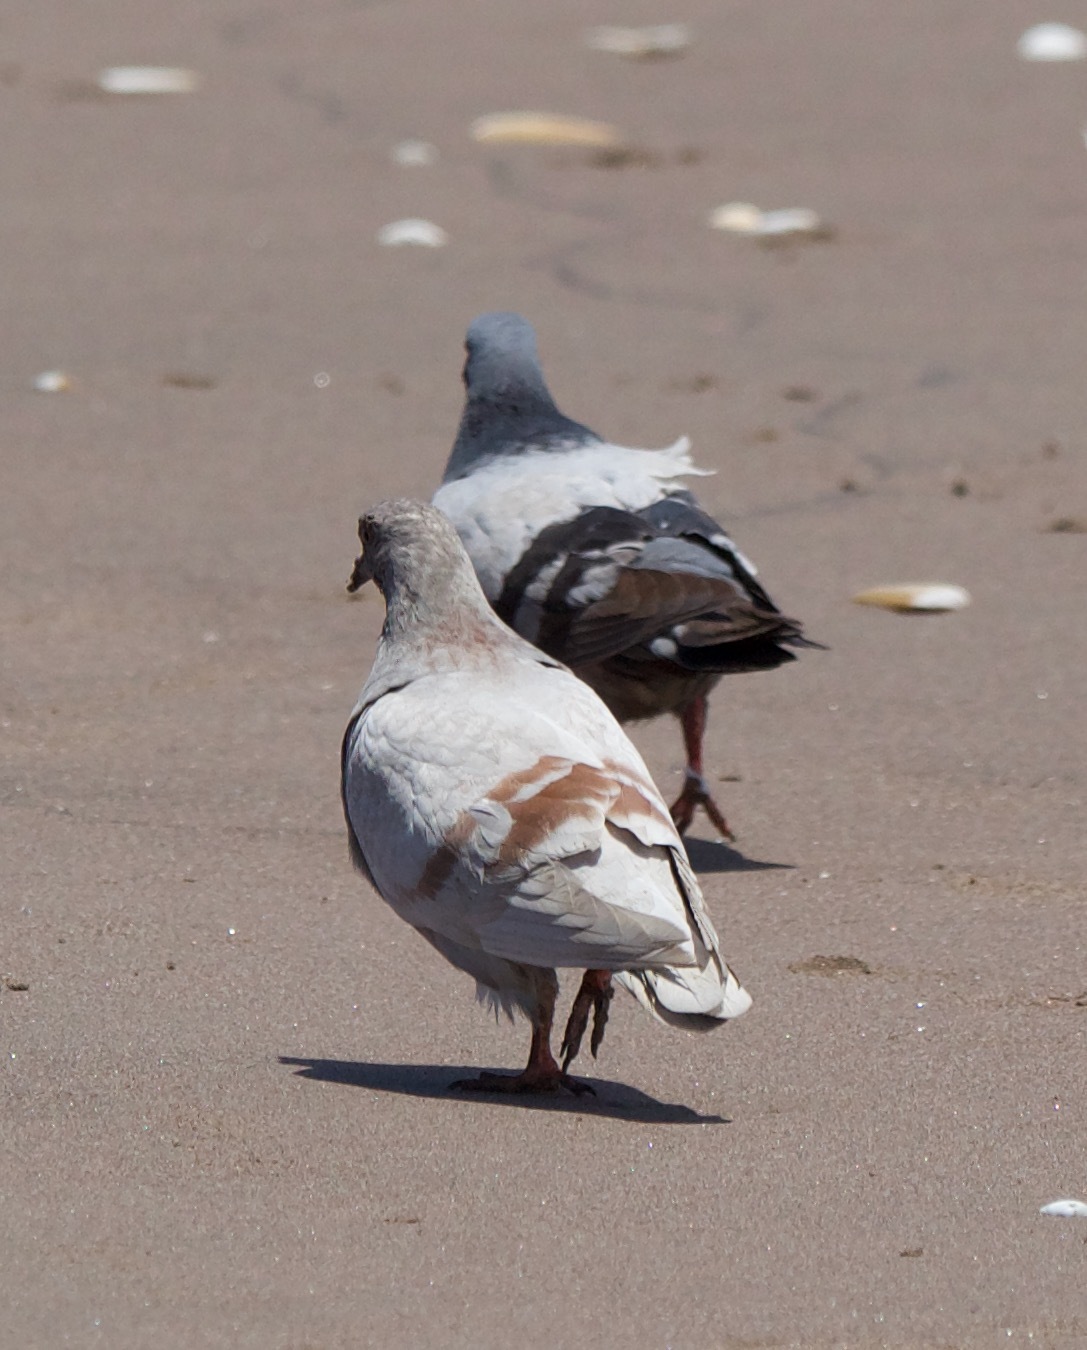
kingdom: Animalia
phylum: Chordata
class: Aves
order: Columbiformes
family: Columbidae
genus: Columba
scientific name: Columba livia
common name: Rock pigeon
